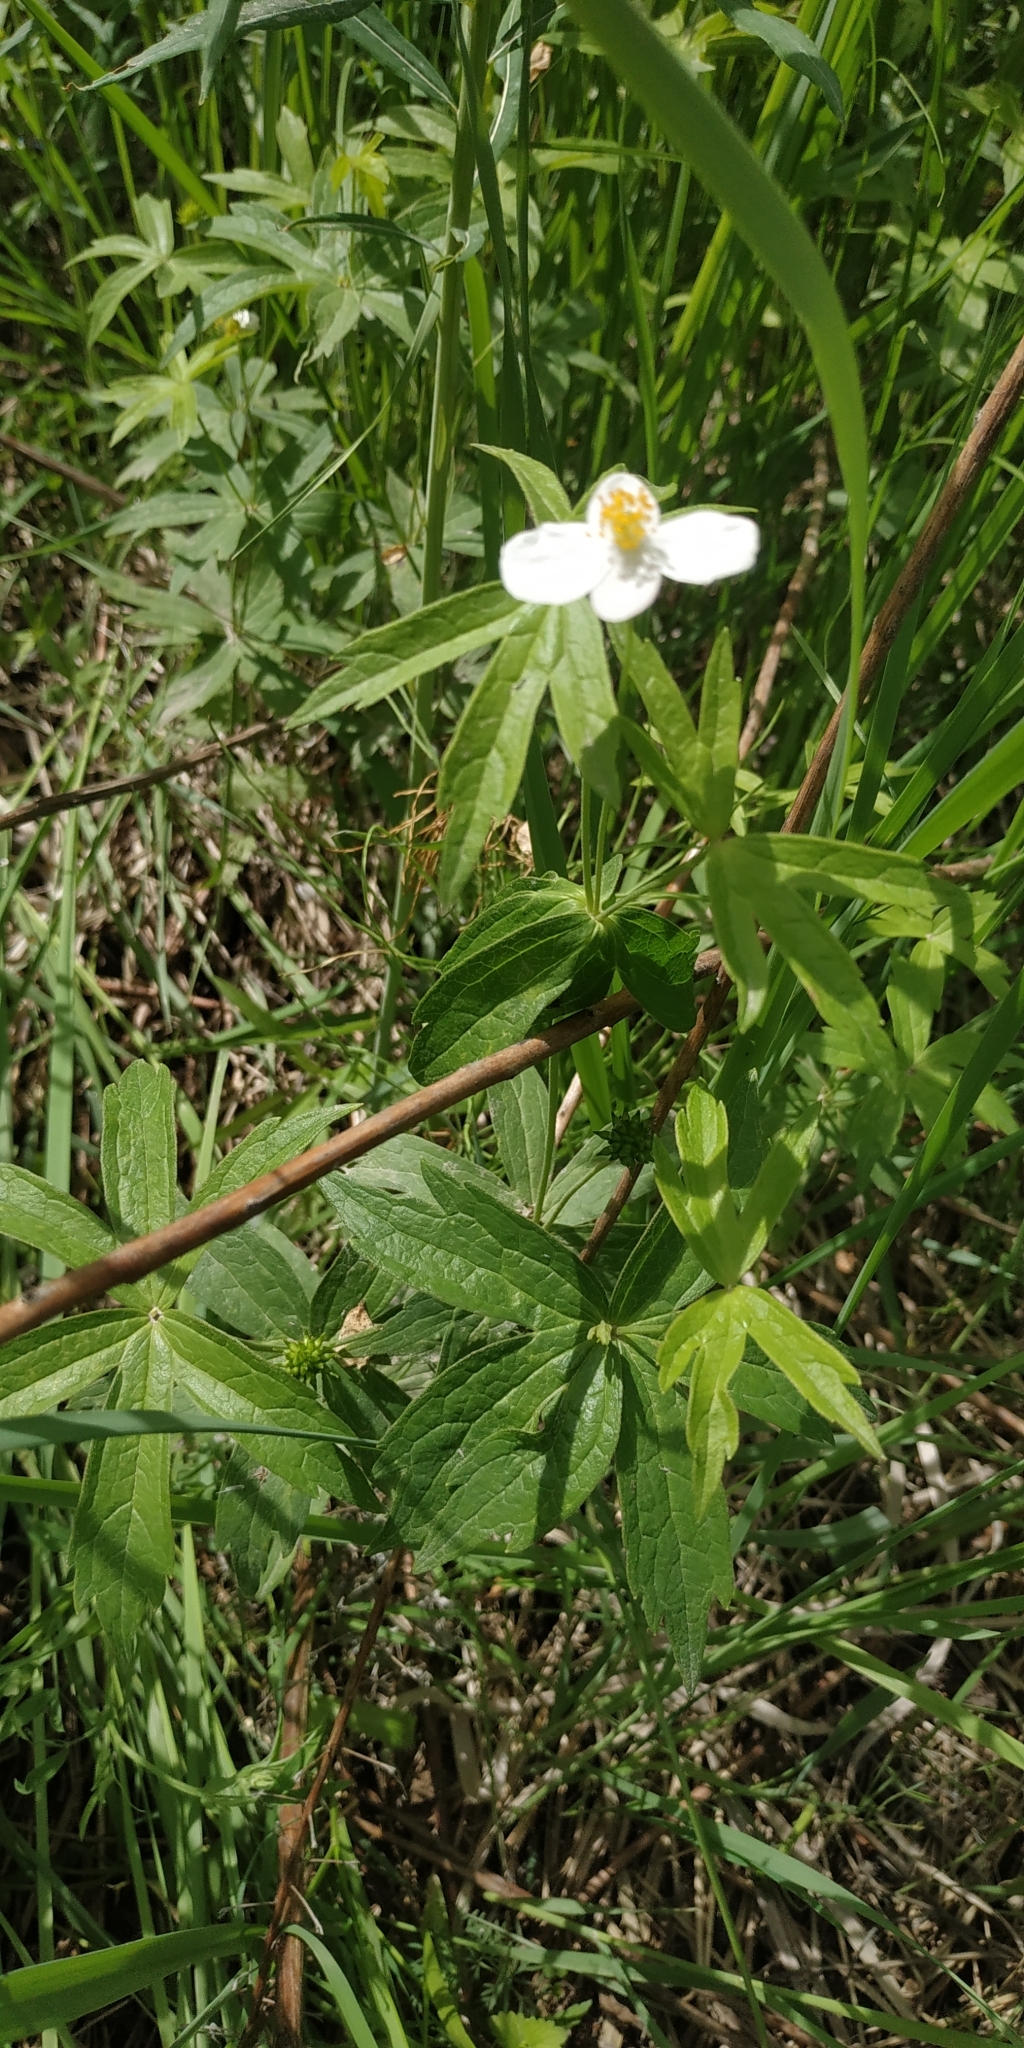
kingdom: Plantae
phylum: Tracheophyta
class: Magnoliopsida
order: Ranunculales
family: Ranunculaceae
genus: Anemonastrum
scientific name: Anemonastrum dichotomum
